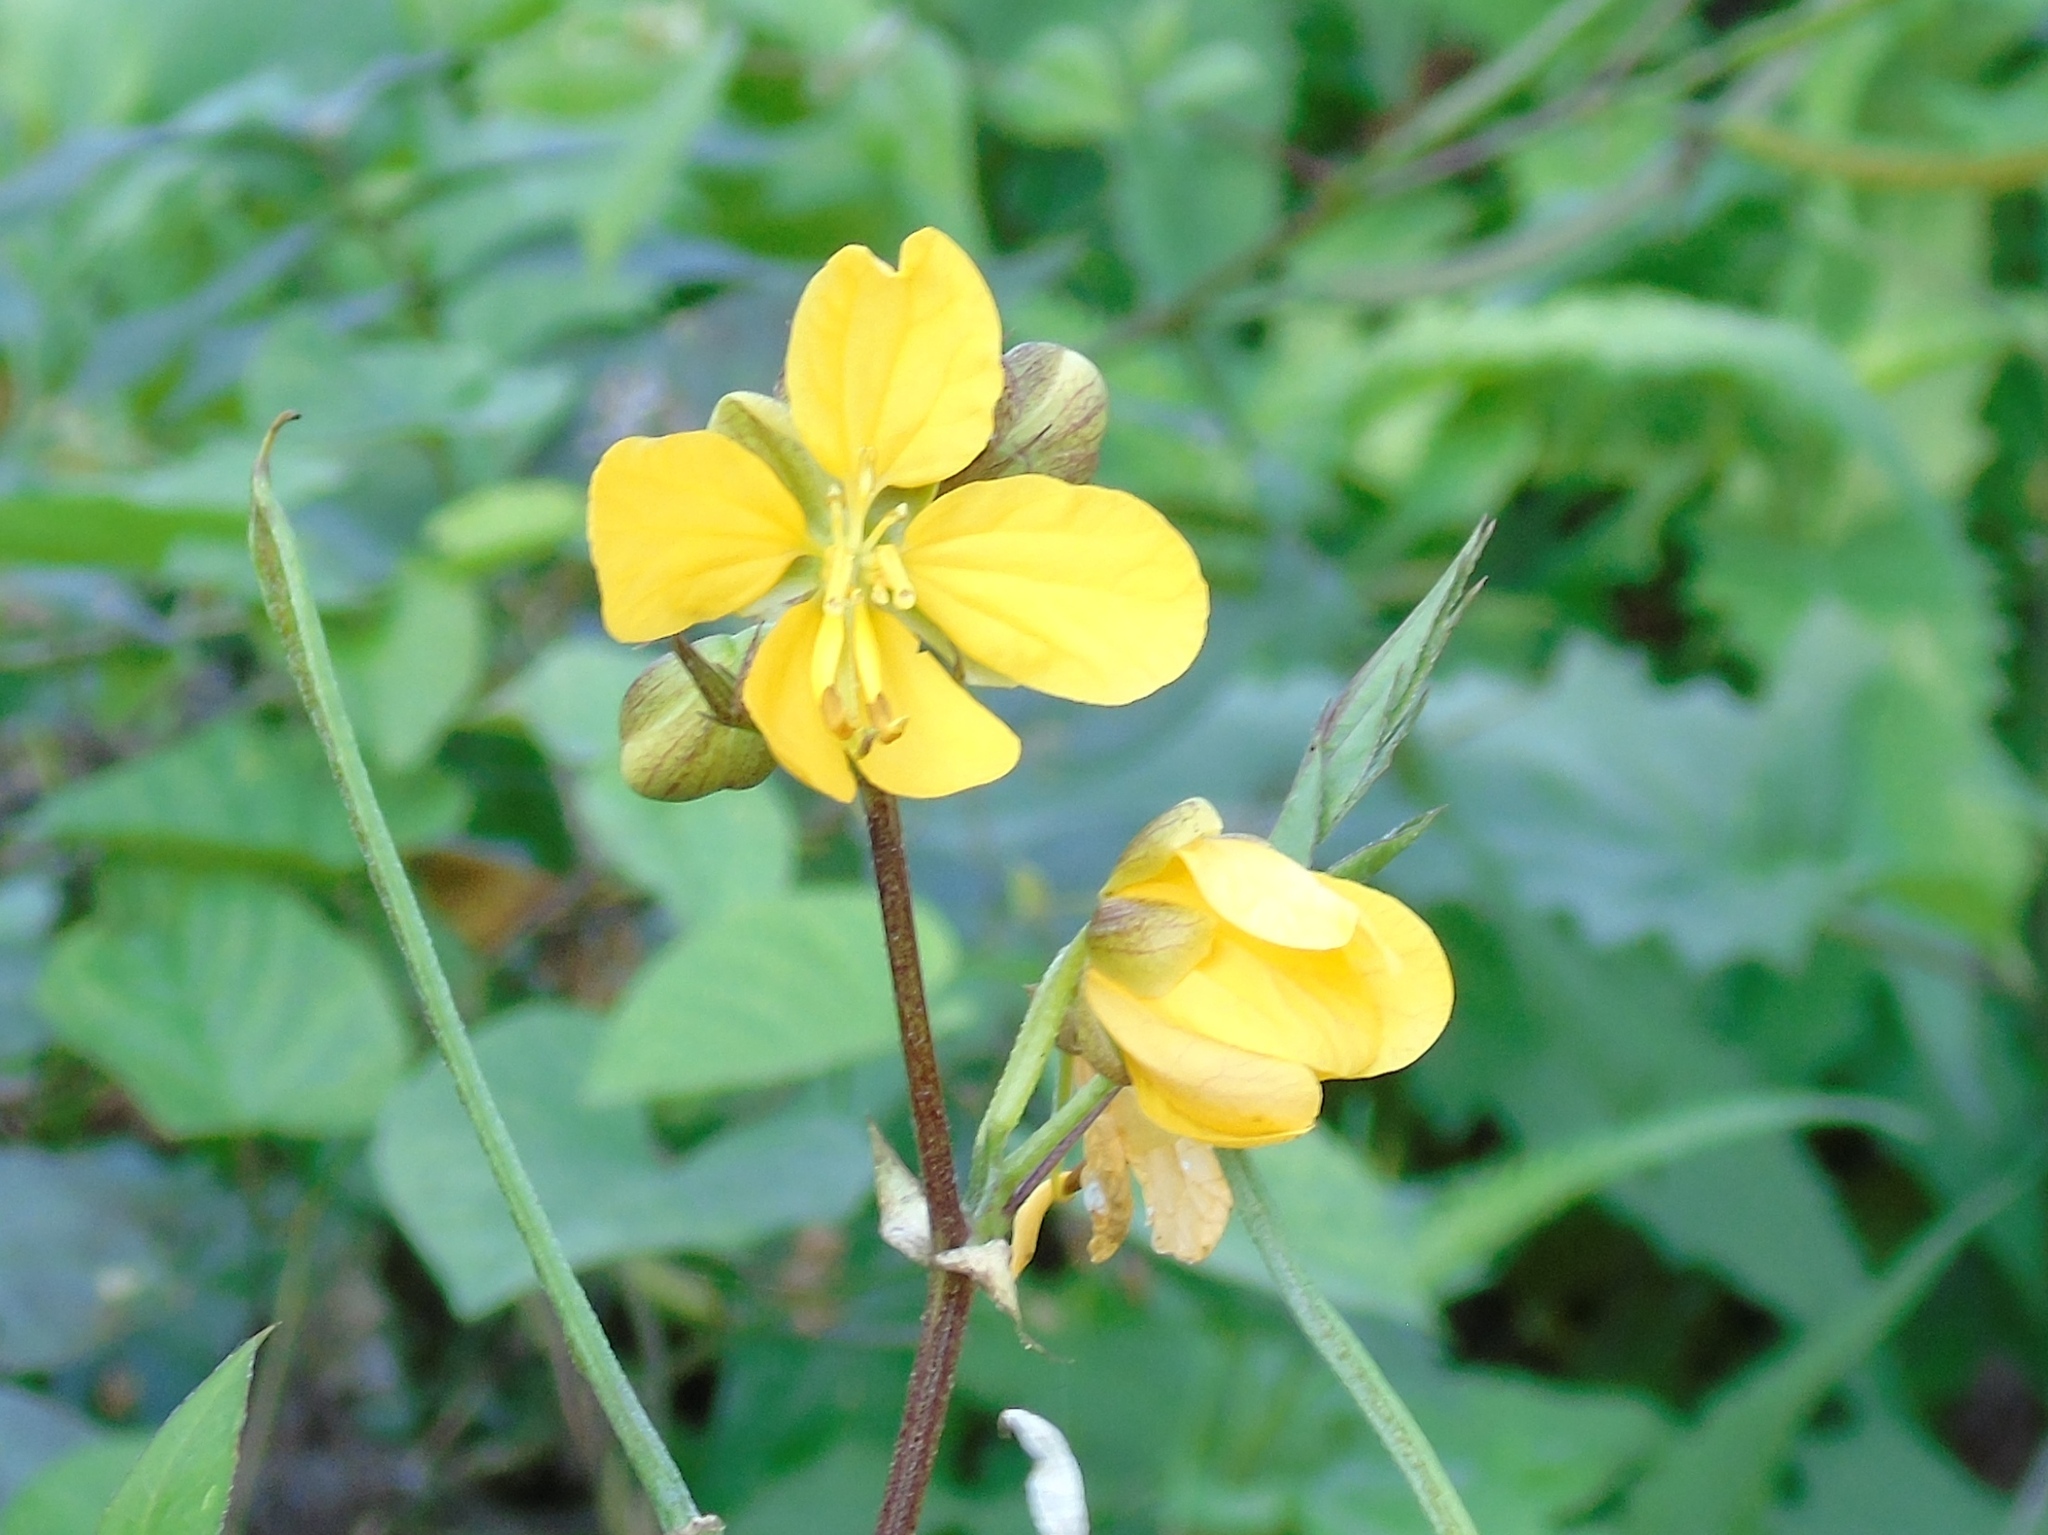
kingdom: Plantae
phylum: Tracheophyta
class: Magnoliopsida
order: Fabales
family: Fabaceae
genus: Senna
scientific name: Senna
